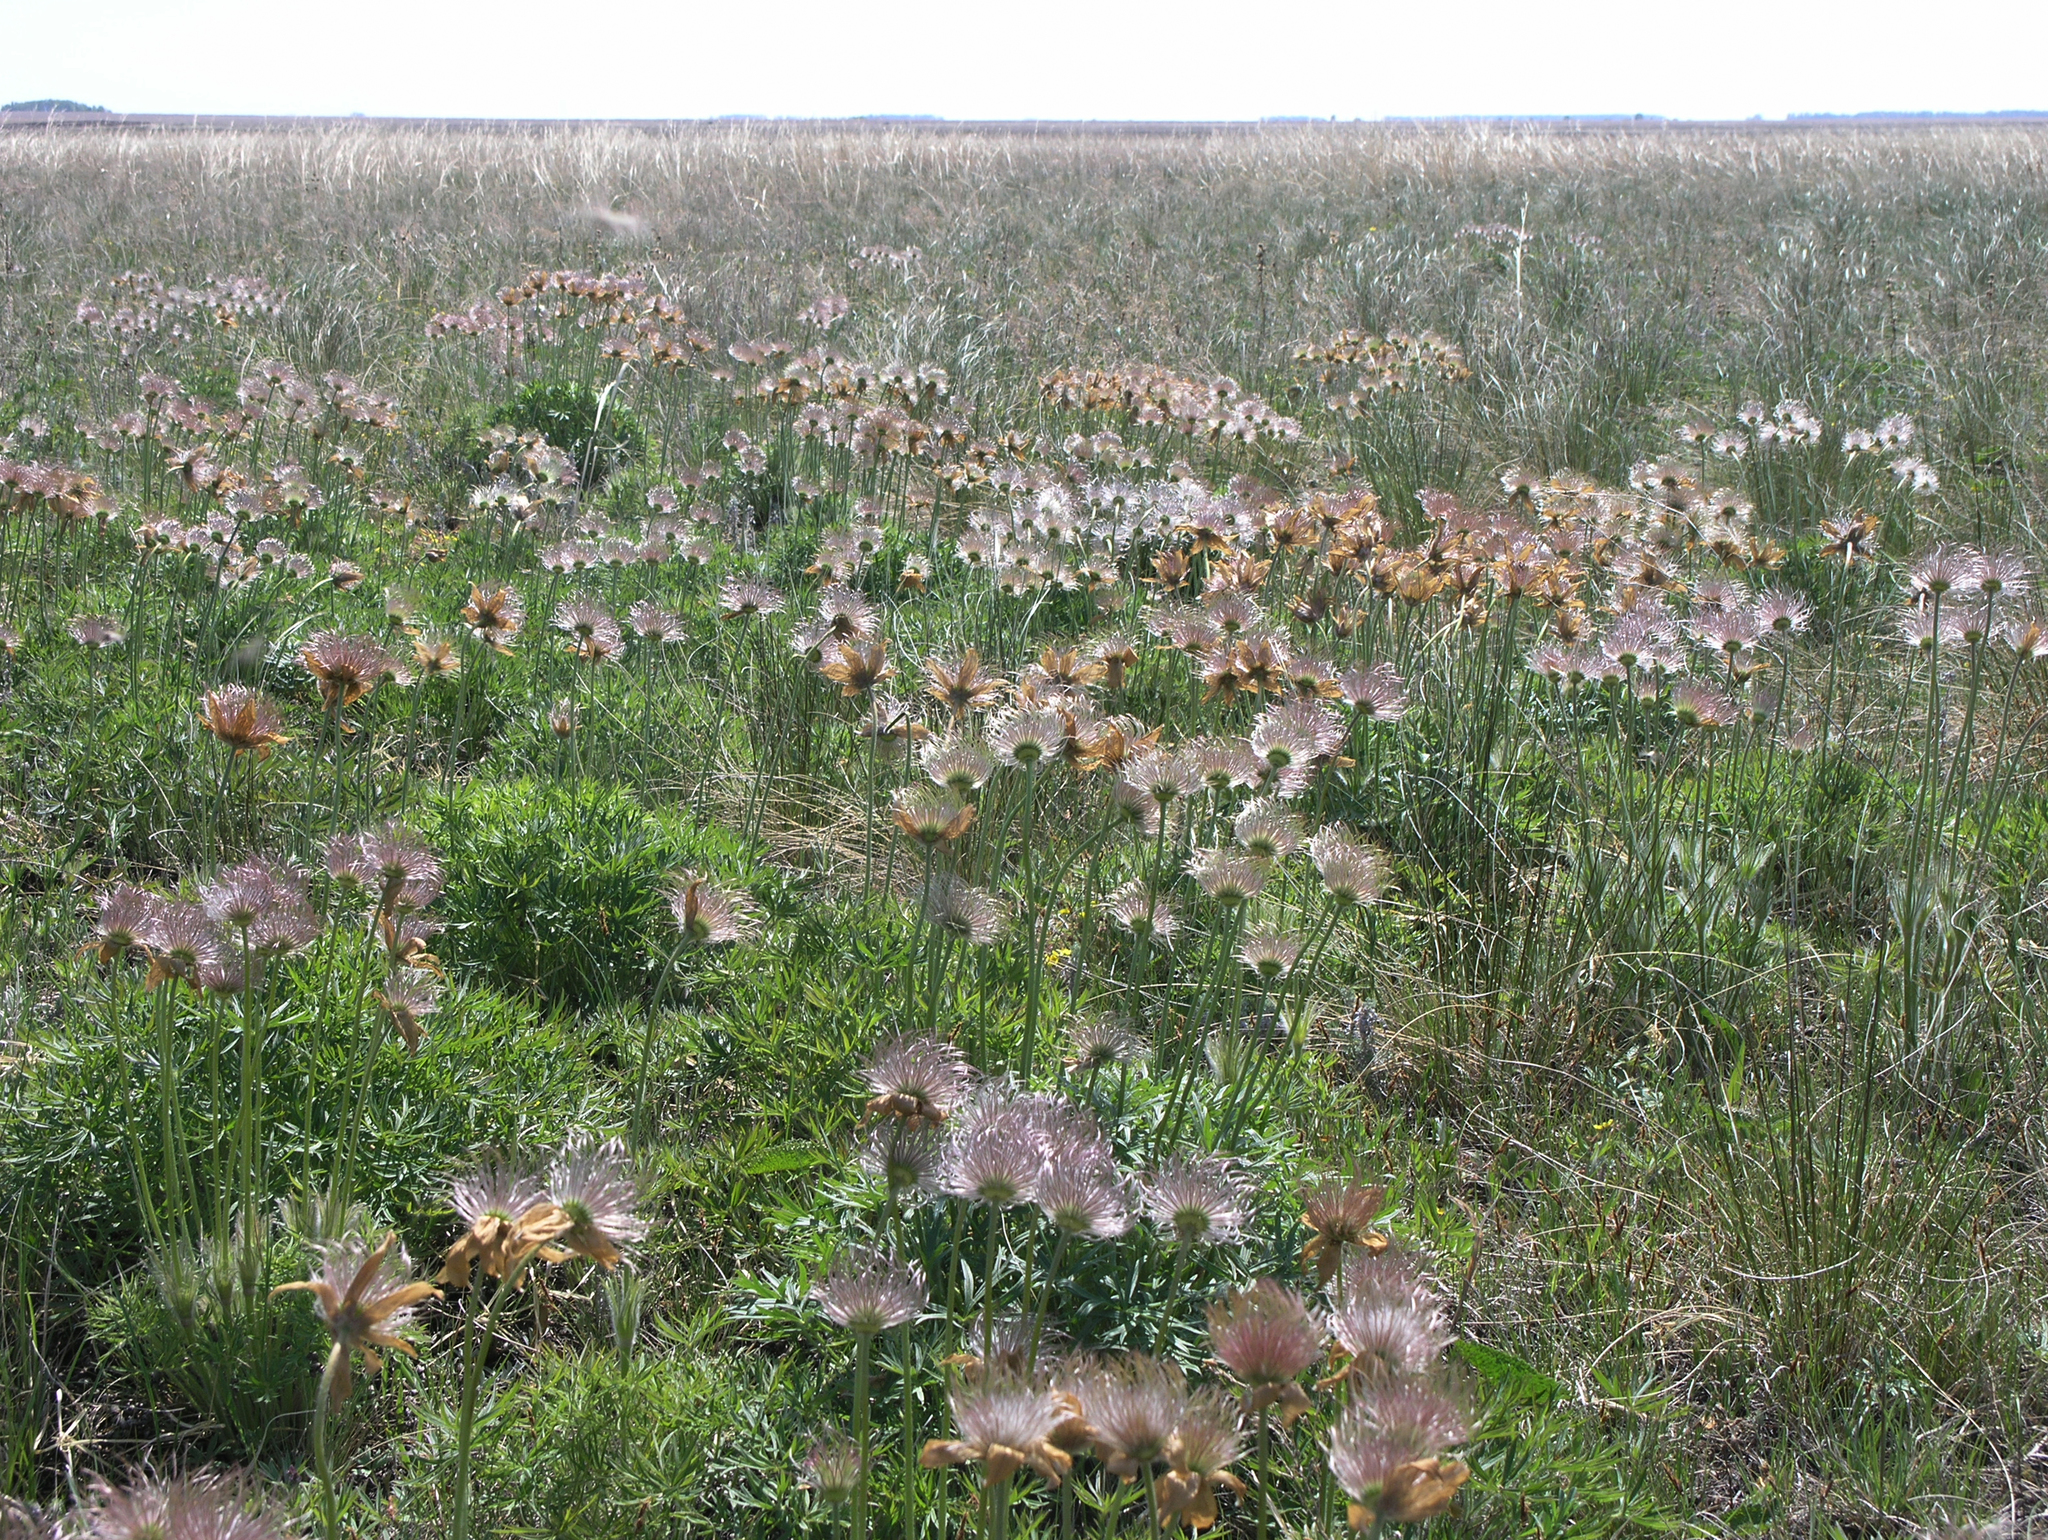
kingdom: Plantae
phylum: Tracheophyta
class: Magnoliopsida
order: Ranunculales
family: Ranunculaceae
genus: Pulsatilla
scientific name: Pulsatilla patens
